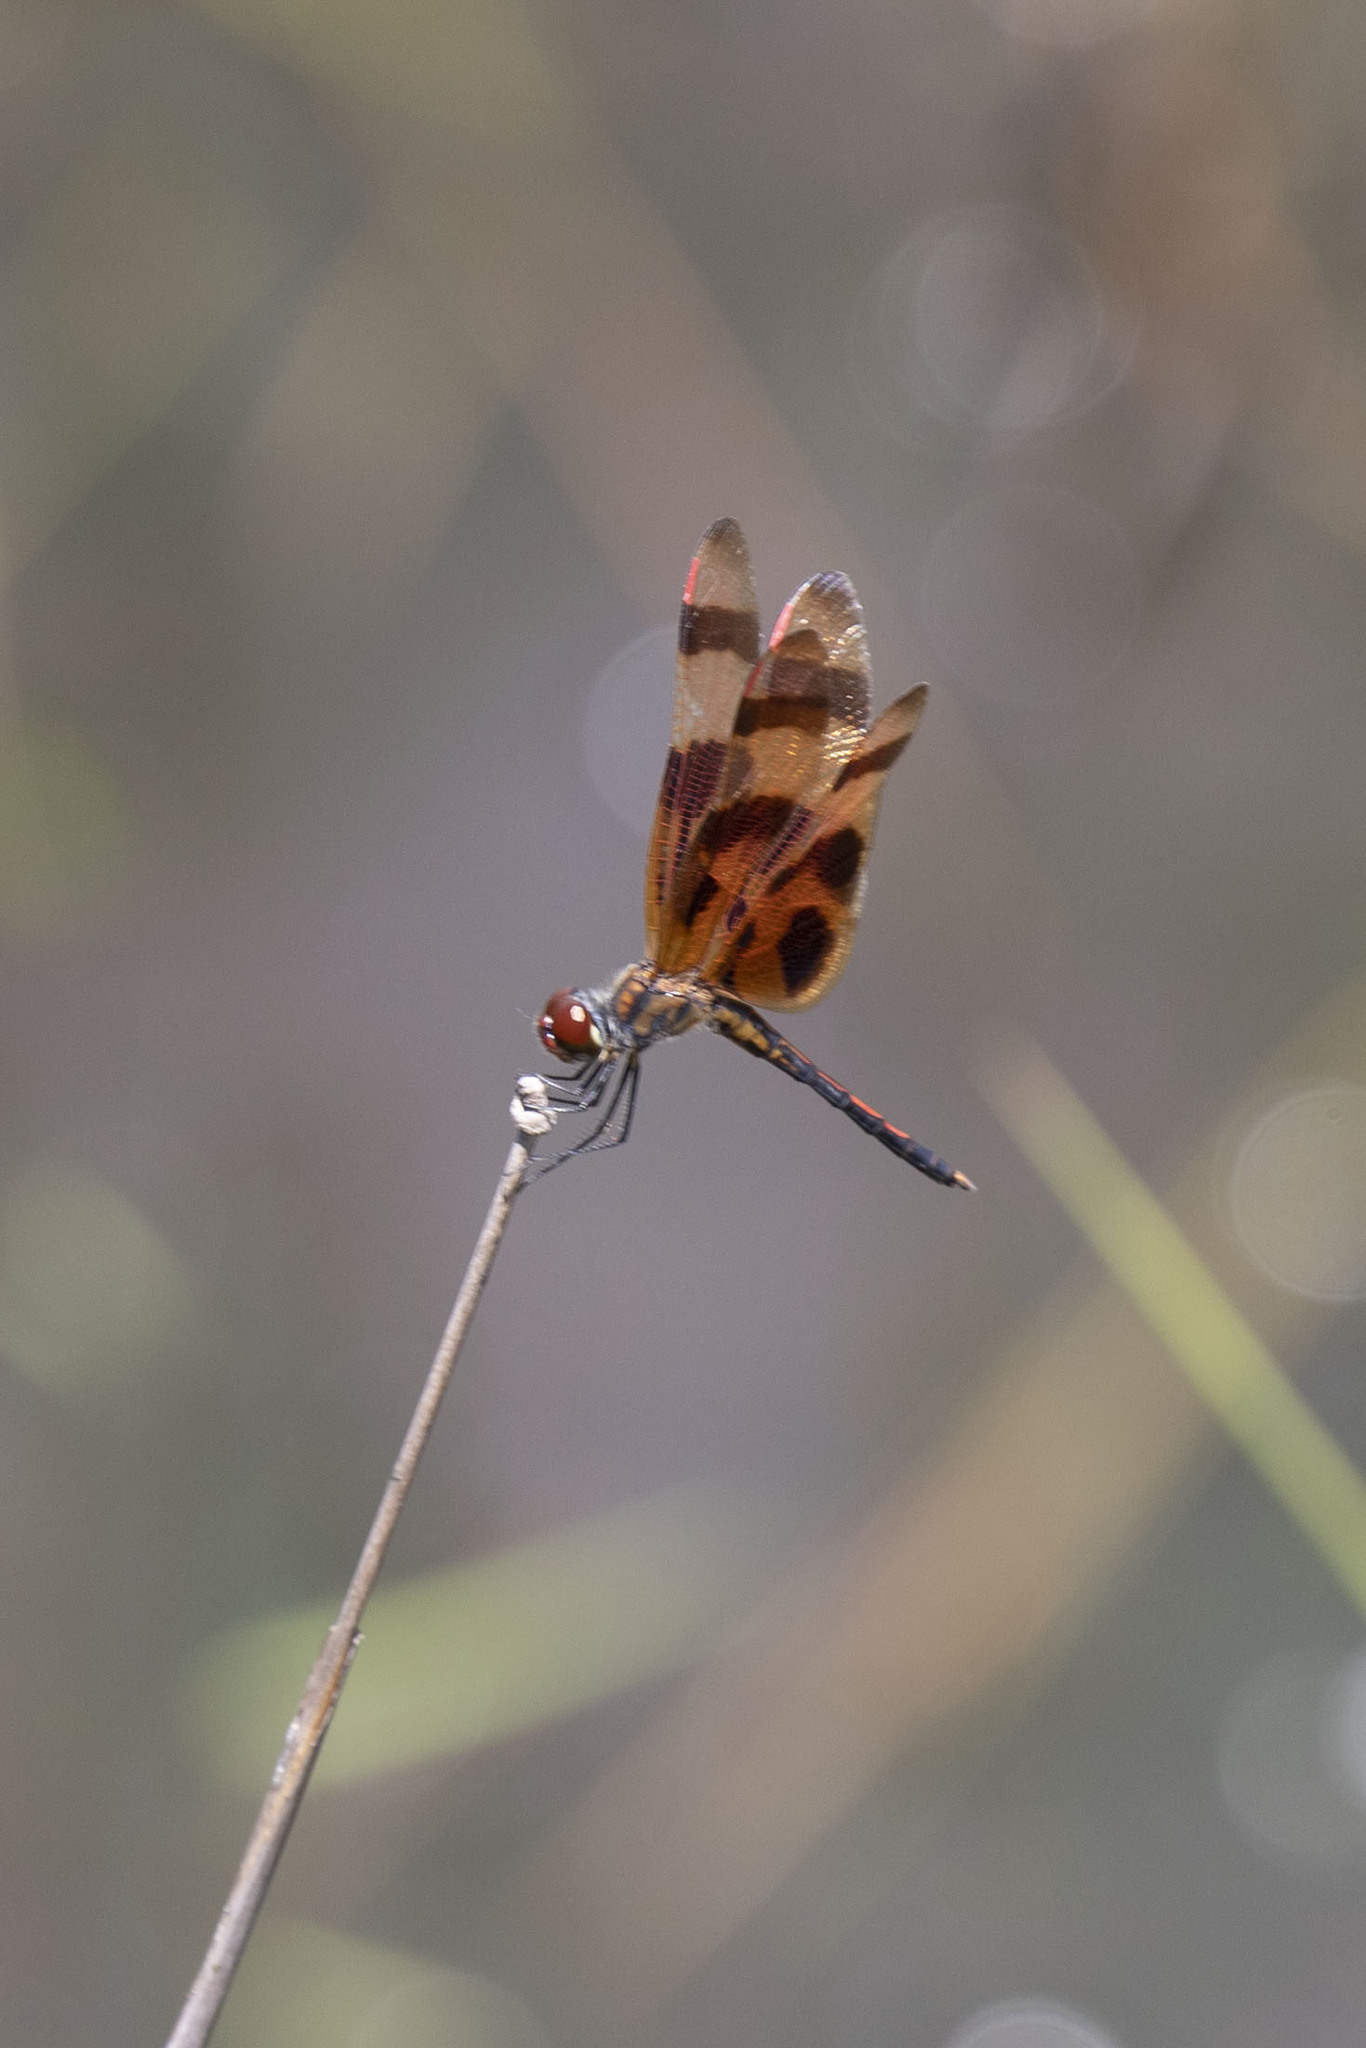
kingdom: Animalia
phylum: Arthropoda
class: Insecta
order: Odonata
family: Libellulidae
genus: Celithemis
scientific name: Celithemis eponina
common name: Halloween pennant
